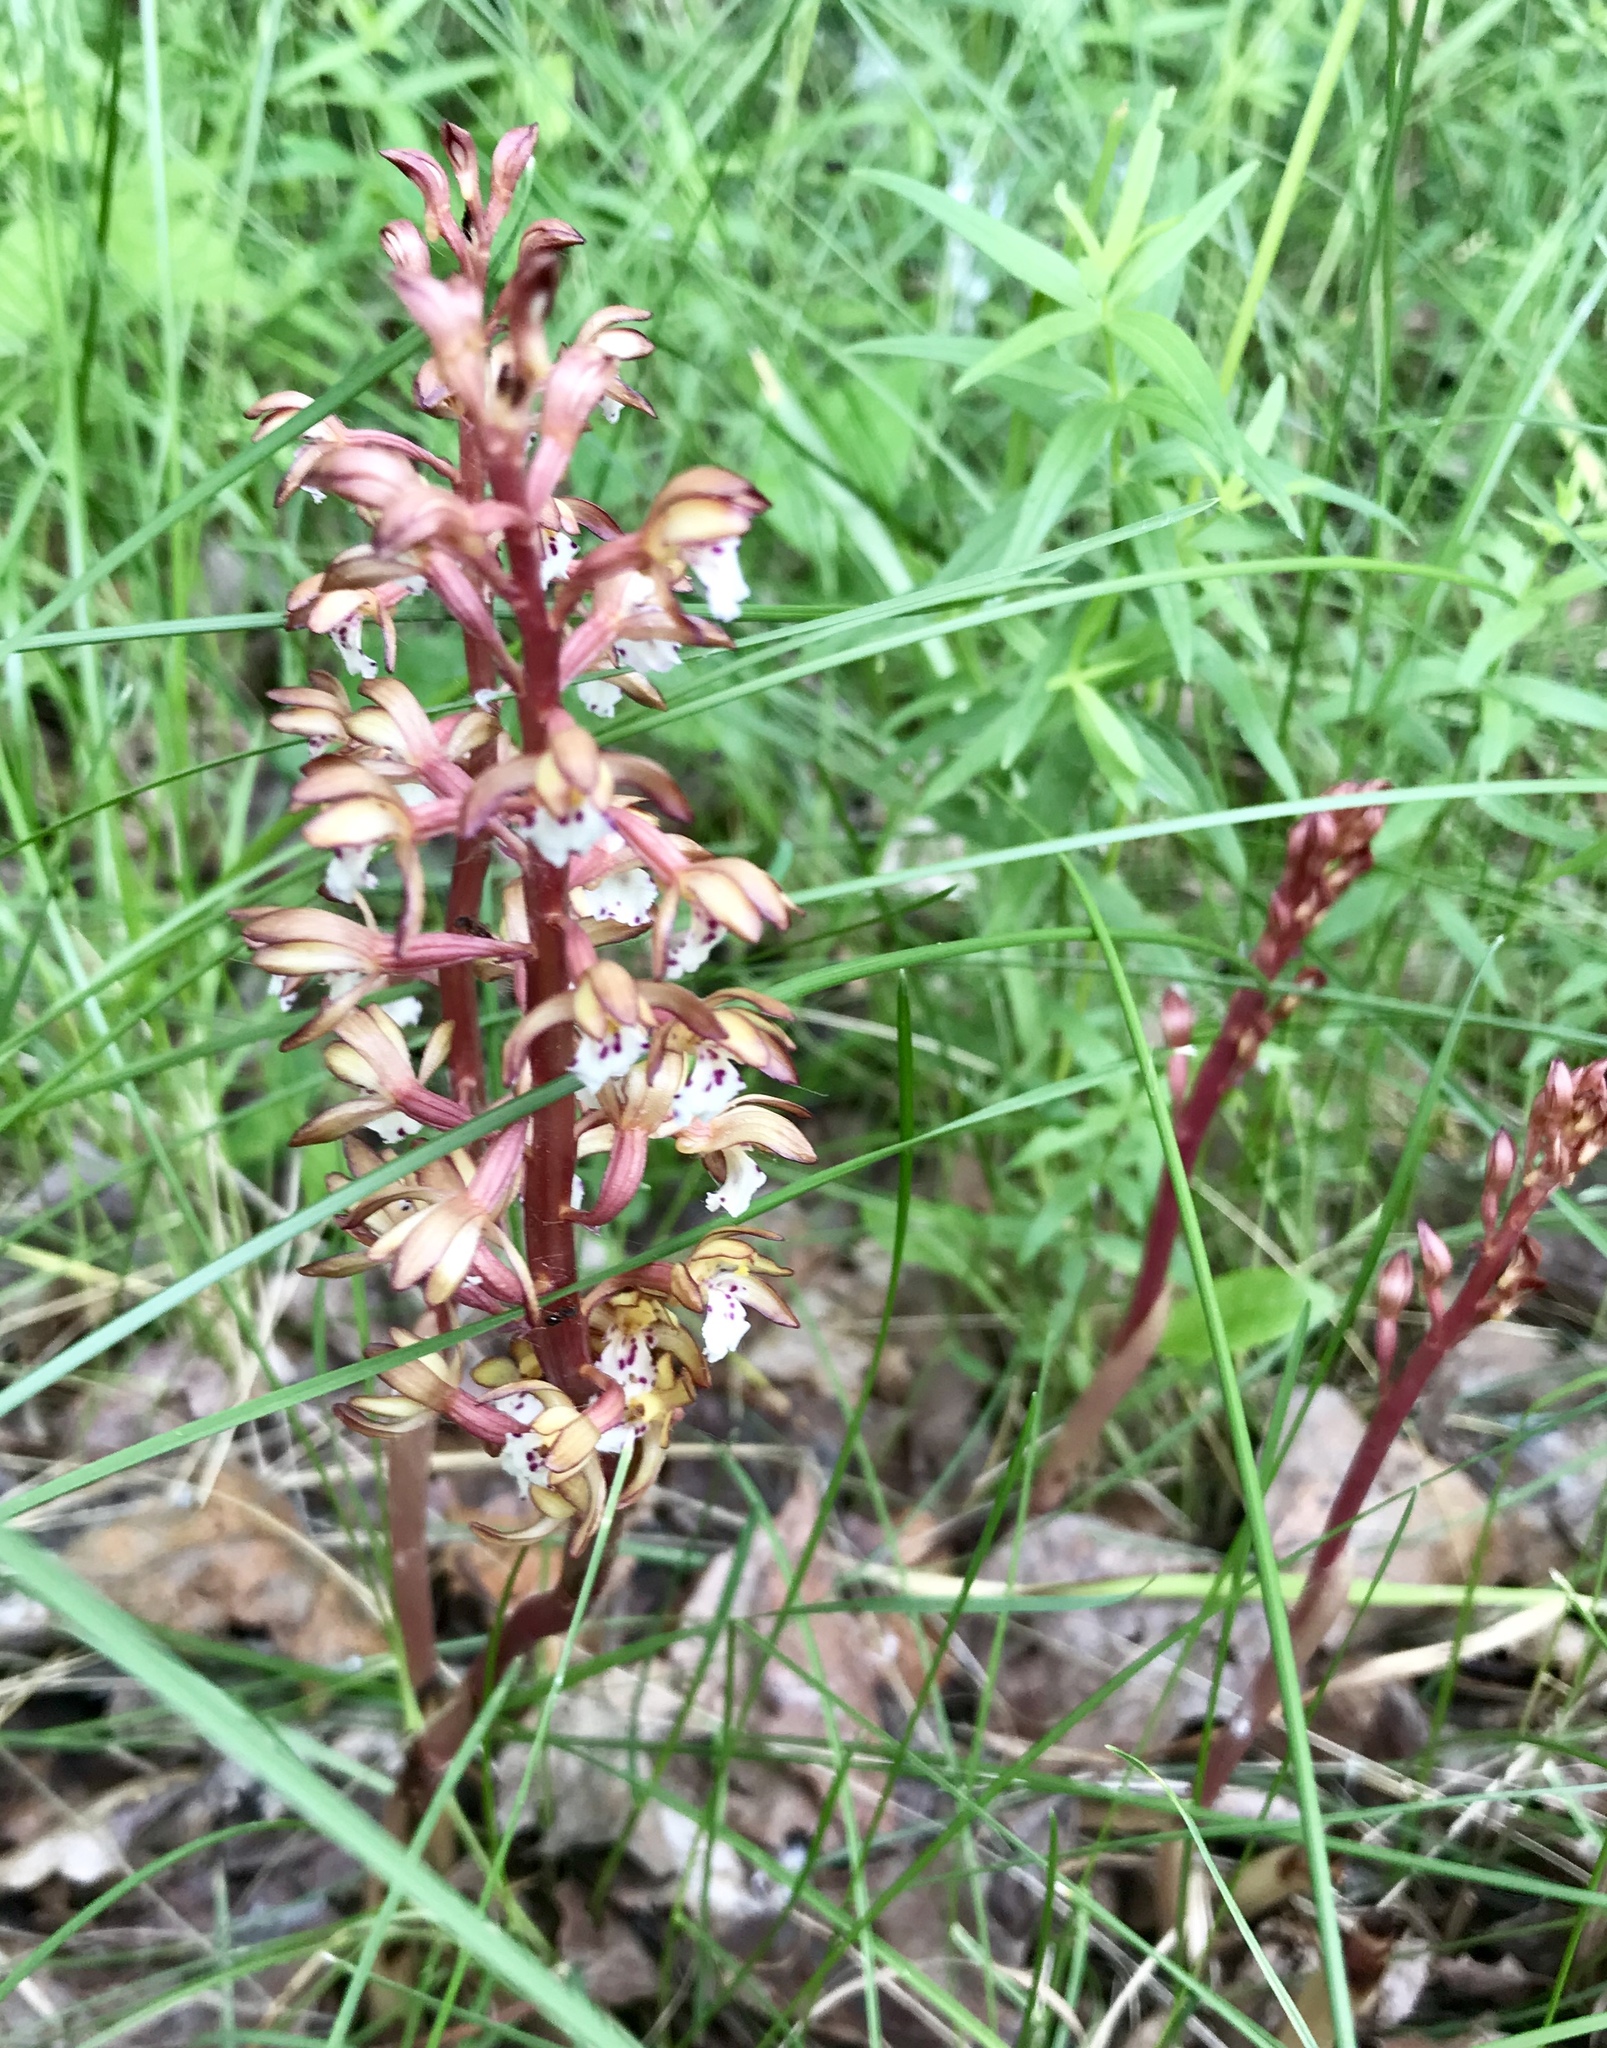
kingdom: Plantae
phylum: Tracheophyta
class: Liliopsida
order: Asparagales
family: Orchidaceae
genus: Corallorhiza
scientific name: Corallorhiza maculata
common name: Spotted coralroot
